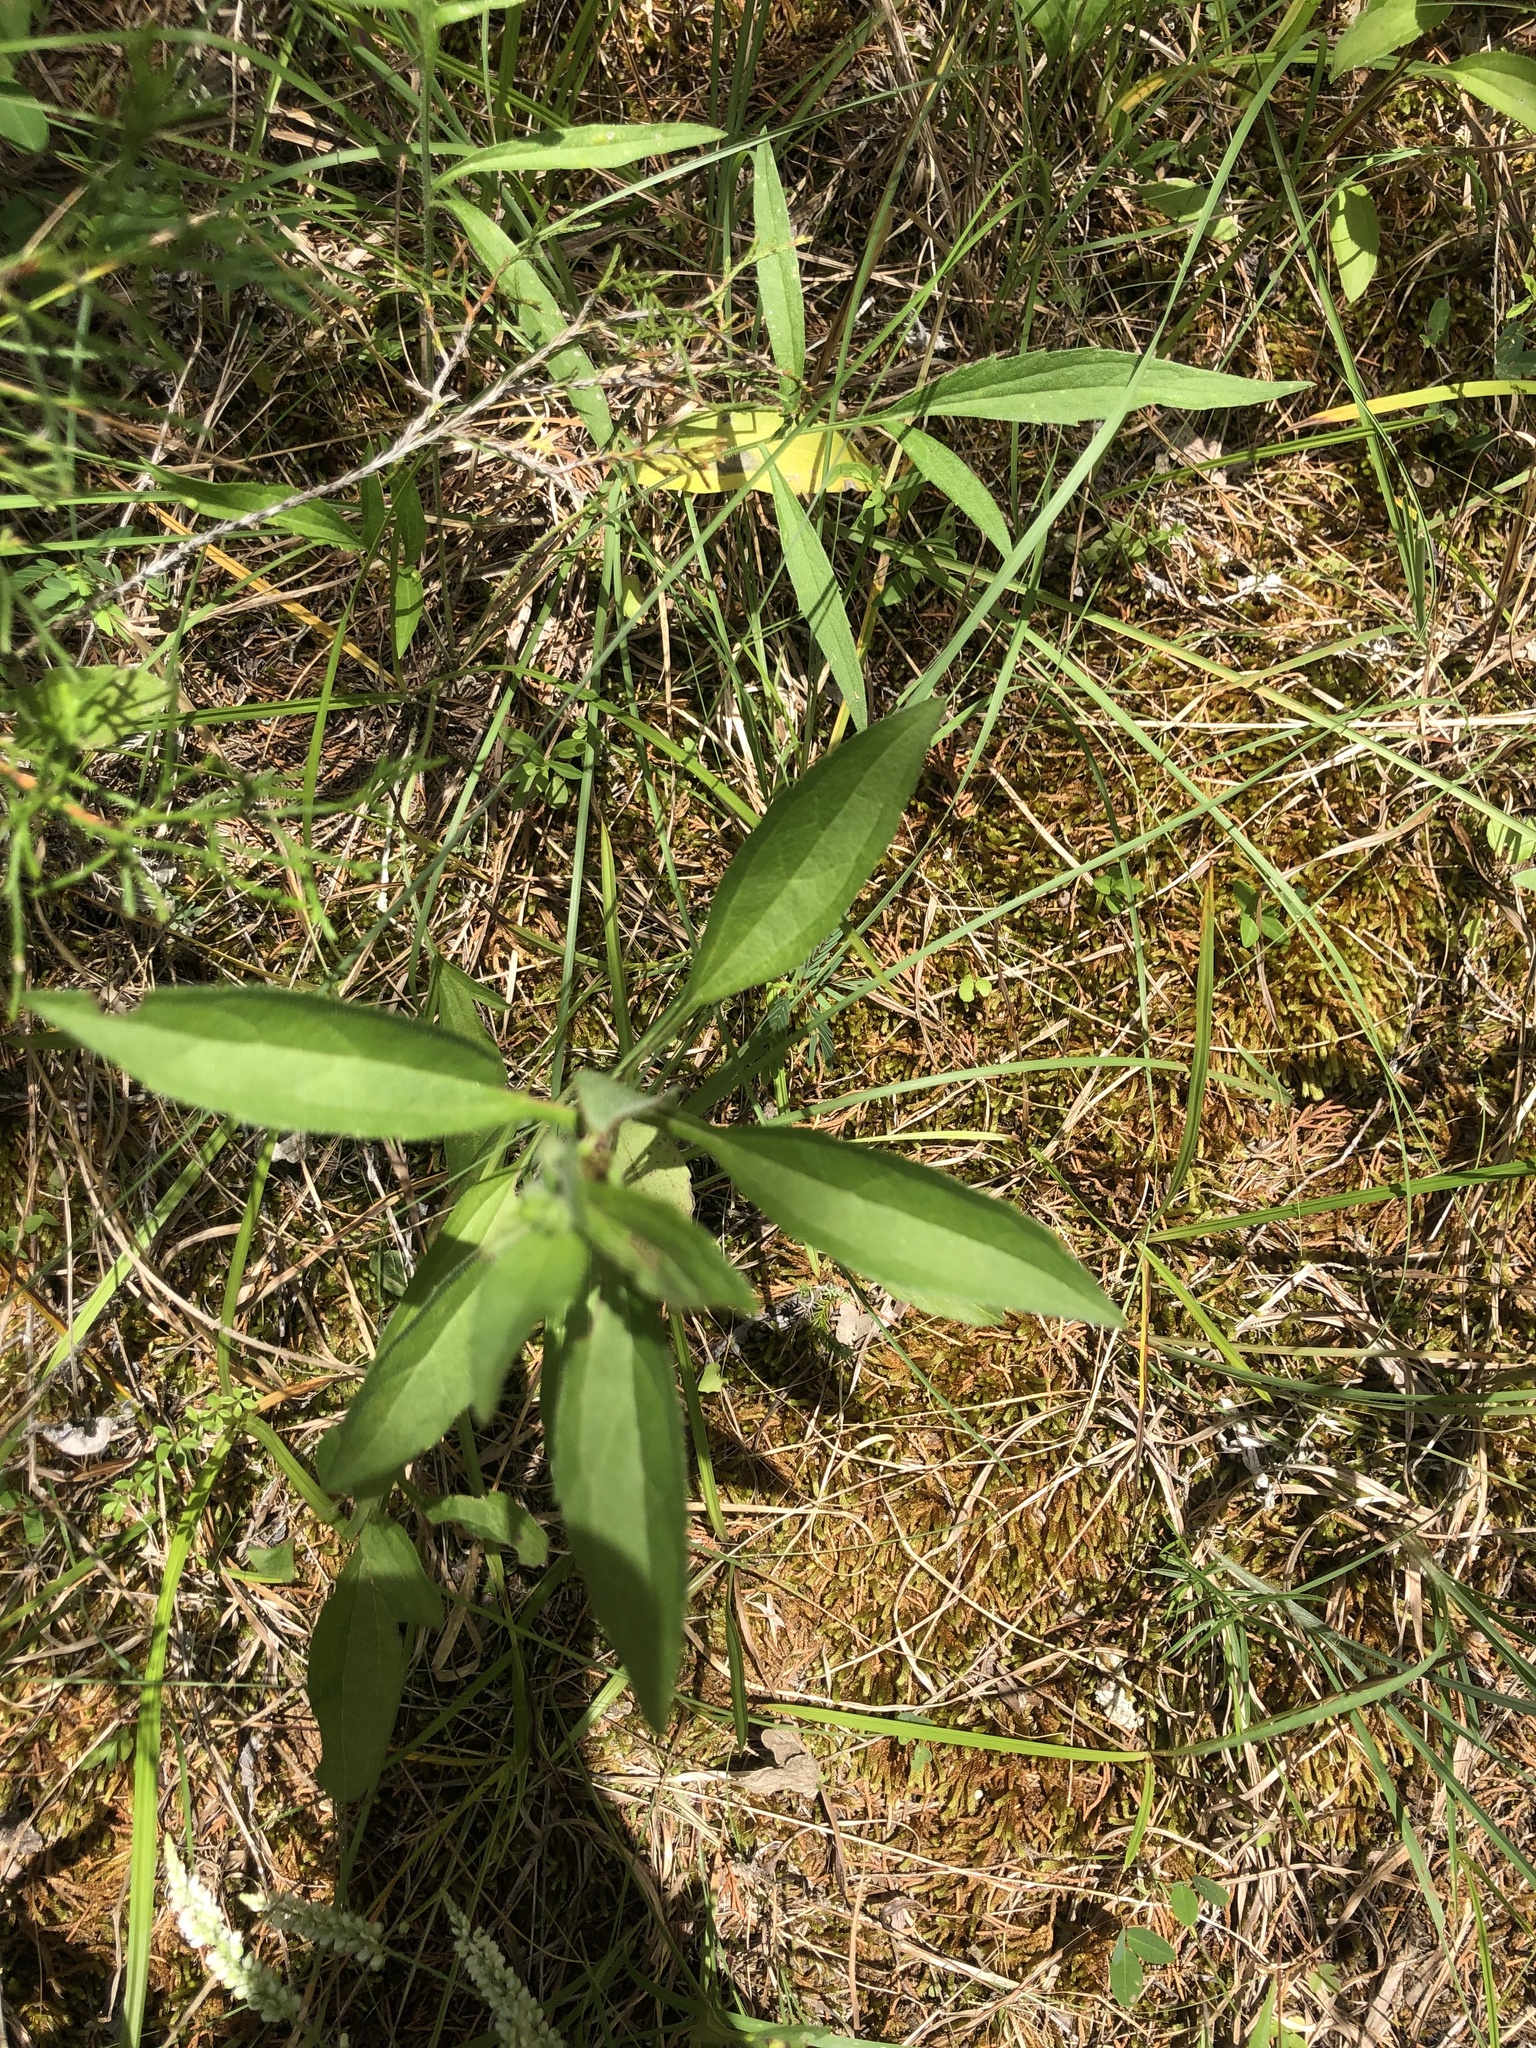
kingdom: Plantae
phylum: Tracheophyta
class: Magnoliopsida
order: Asterales
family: Asteraceae
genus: Rudbeckia
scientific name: Rudbeckia terranigrae
